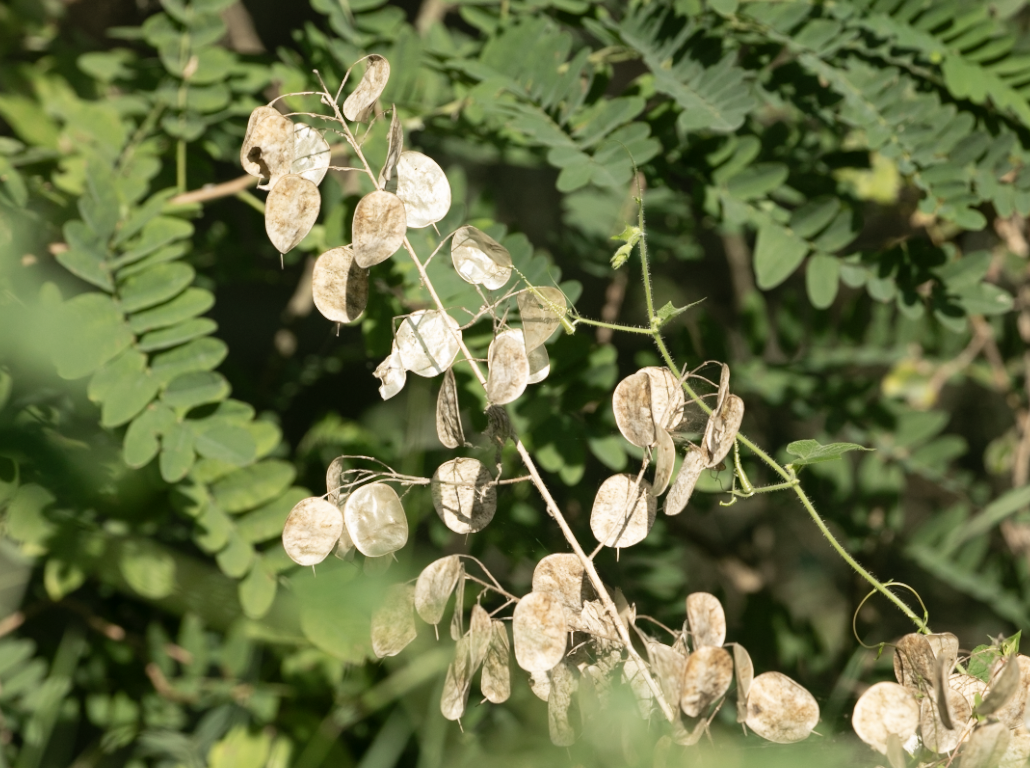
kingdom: Plantae
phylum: Tracheophyta
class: Magnoliopsida
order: Brassicales
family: Brassicaceae
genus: Lunaria
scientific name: Lunaria annua
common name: Honesty
